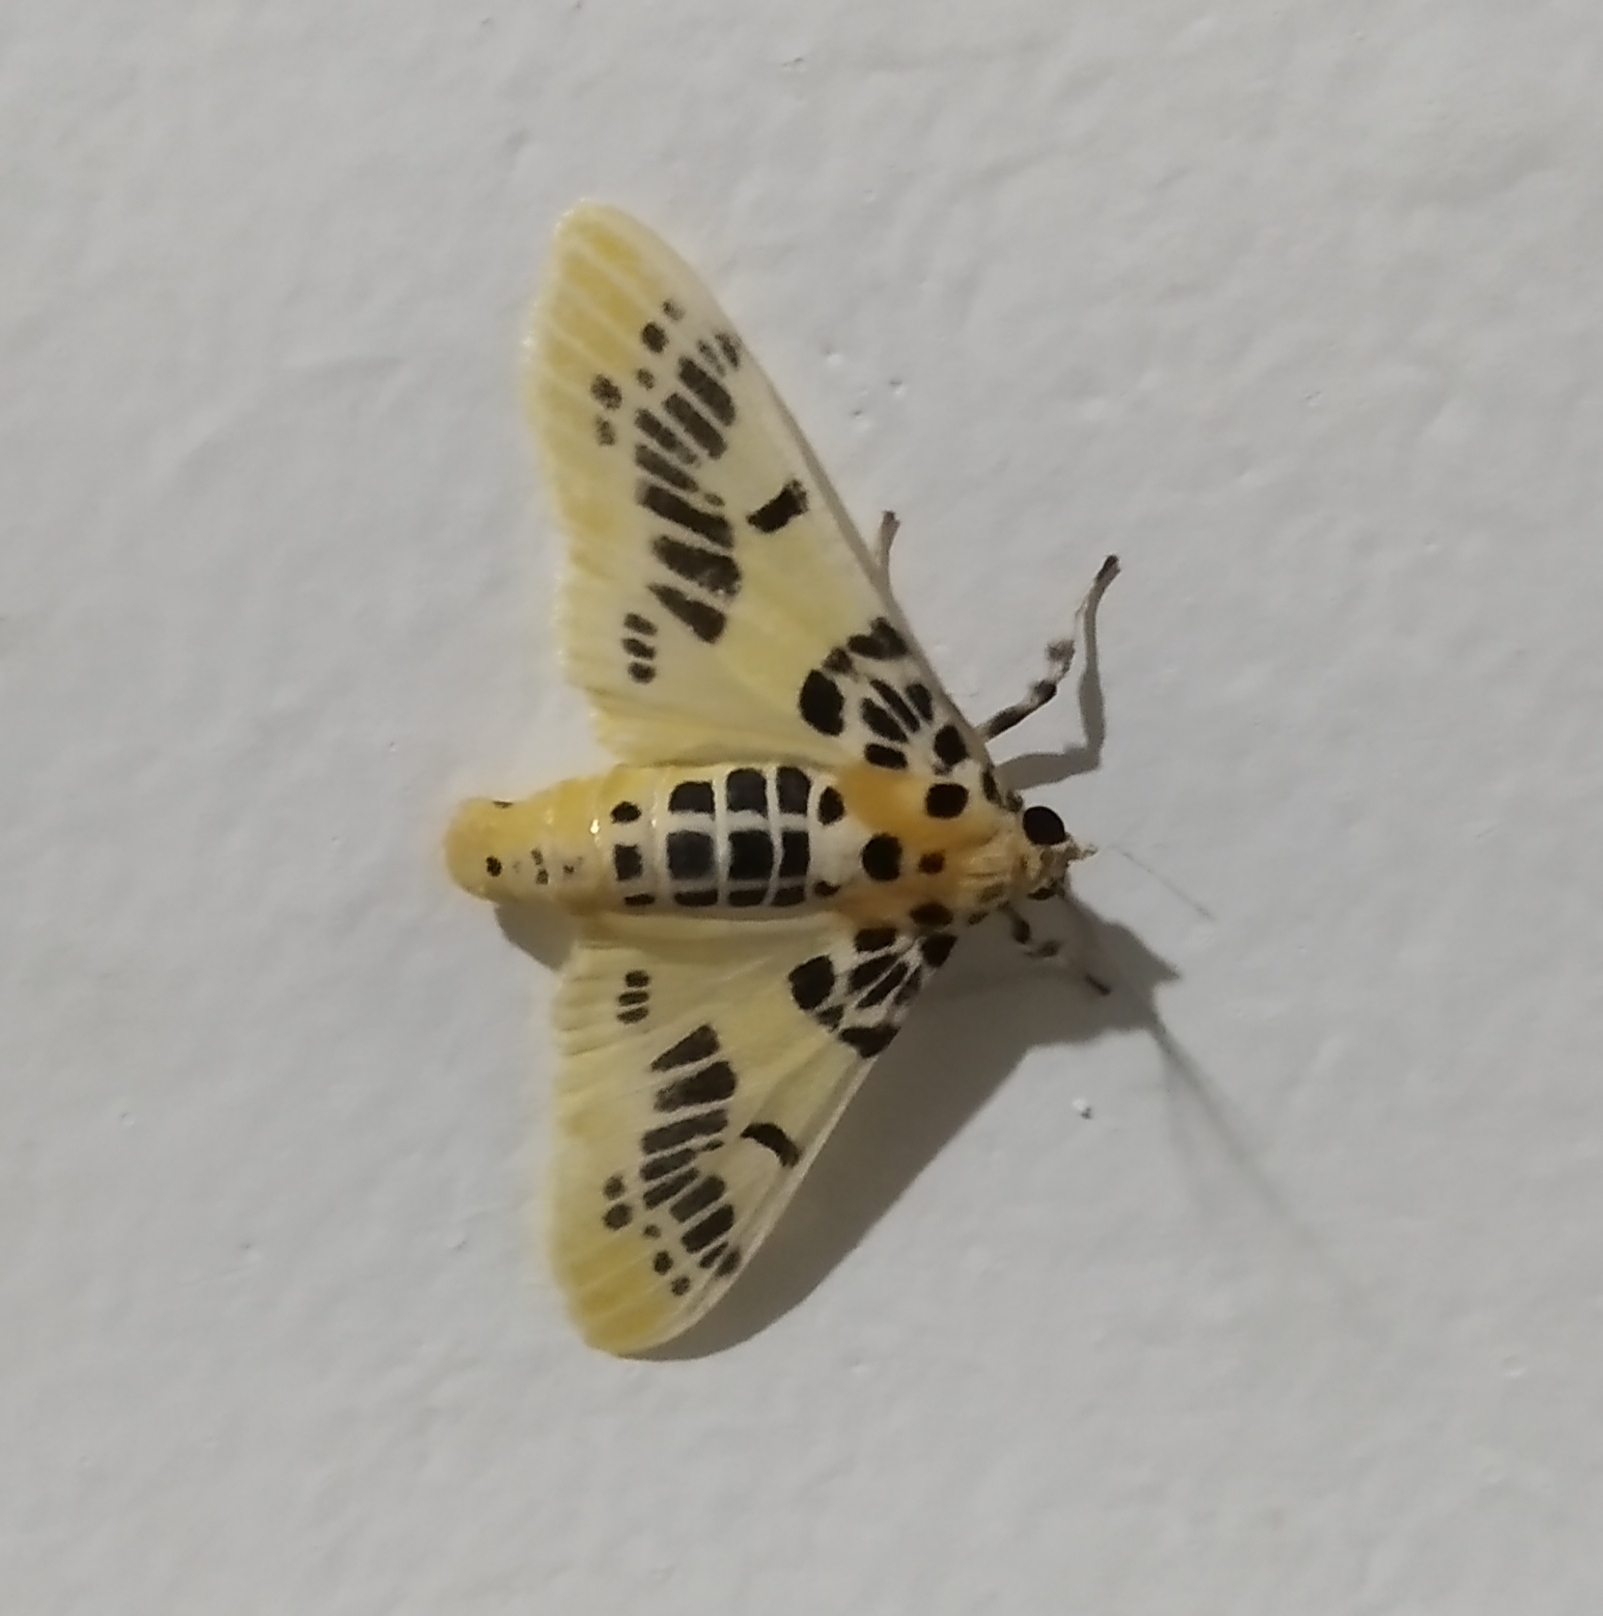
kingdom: Animalia
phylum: Arthropoda
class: Insecta
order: Lepidoptera
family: Crambidae
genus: Pachynoa
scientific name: Pachynoa xanthochyta
